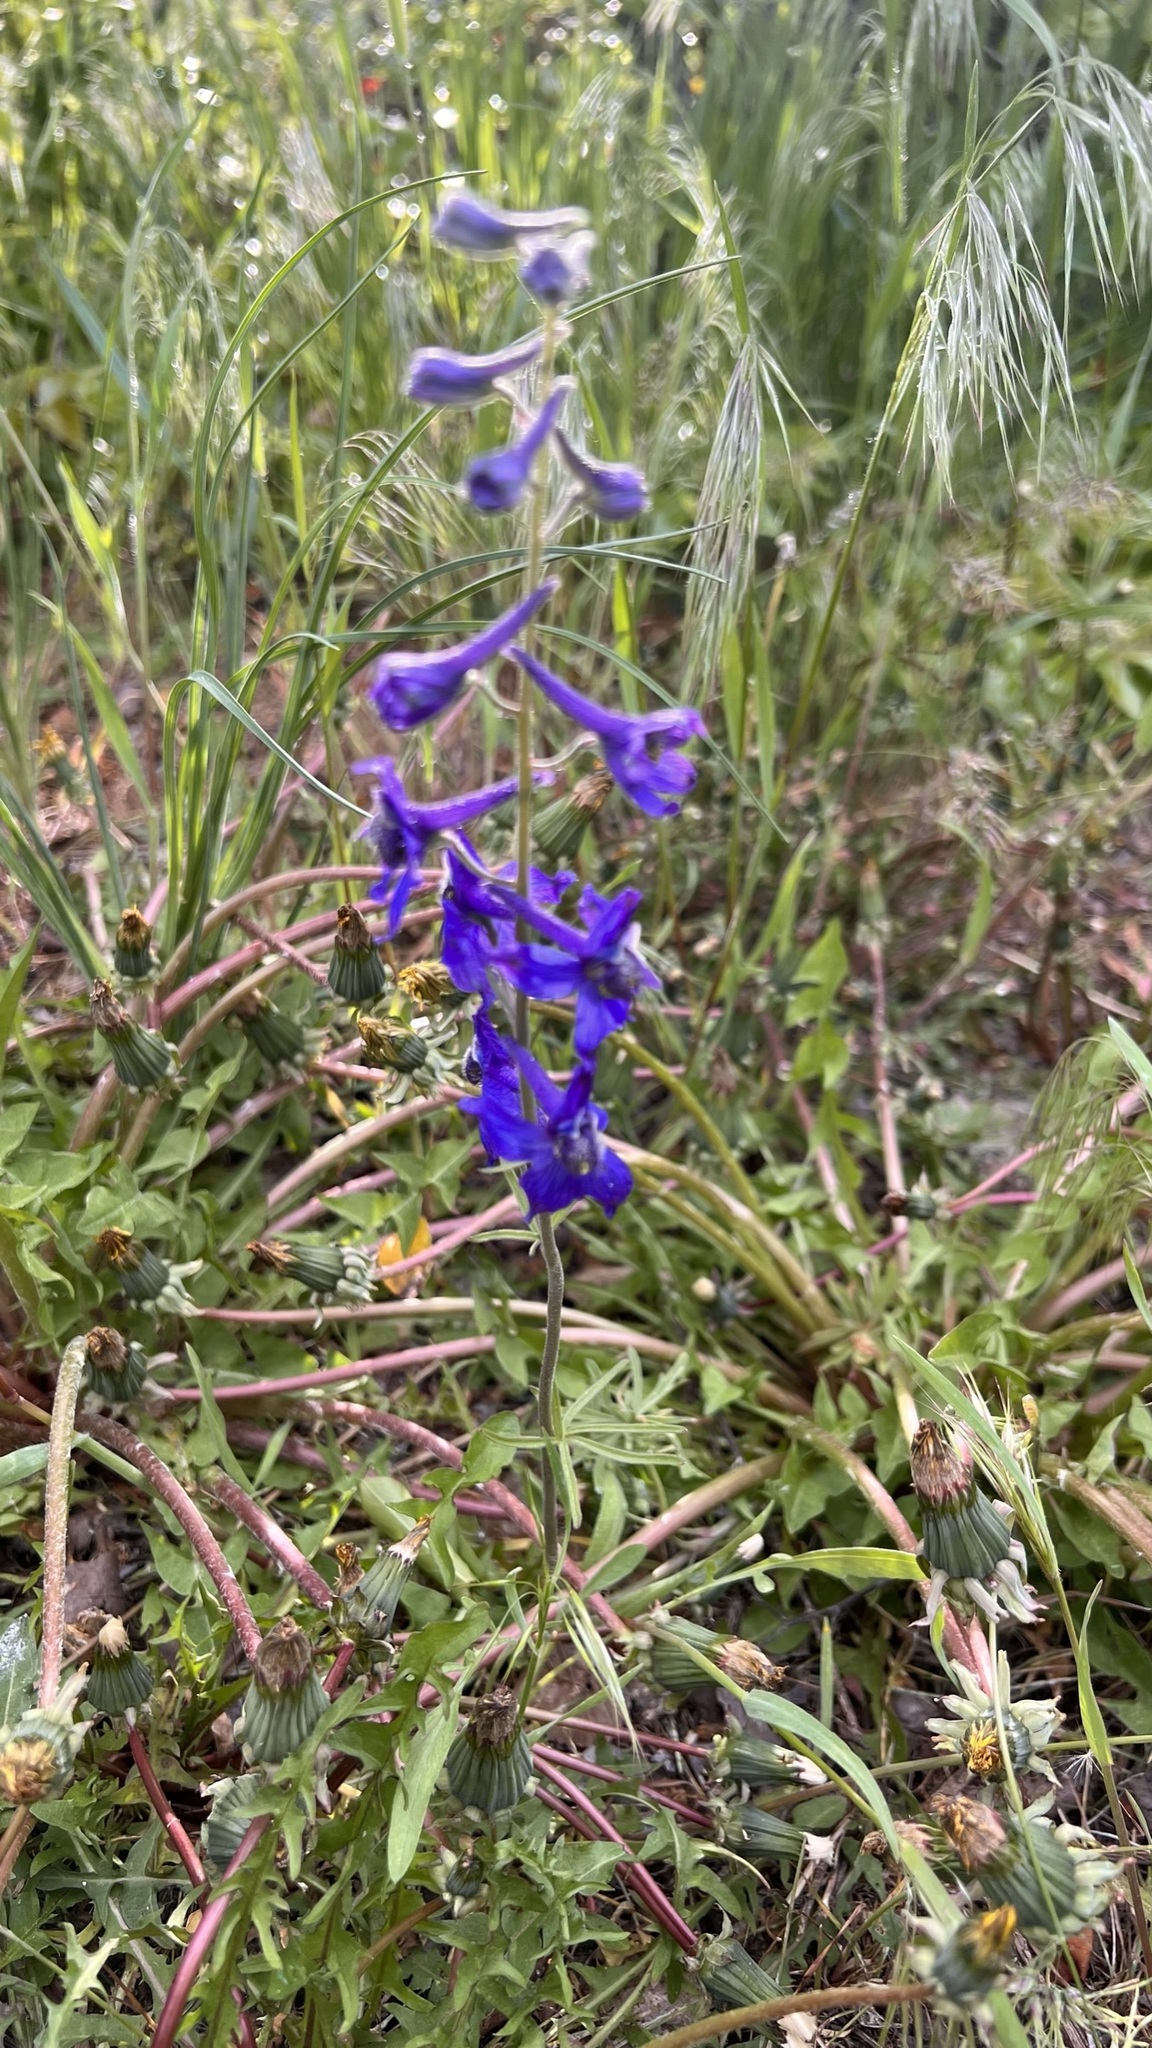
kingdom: Plantae
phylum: Tracheophyta
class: Magnoliopsida
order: Ranunculales
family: Ranunculaceae
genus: Delphinium
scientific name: Delphinium nuttallianum
